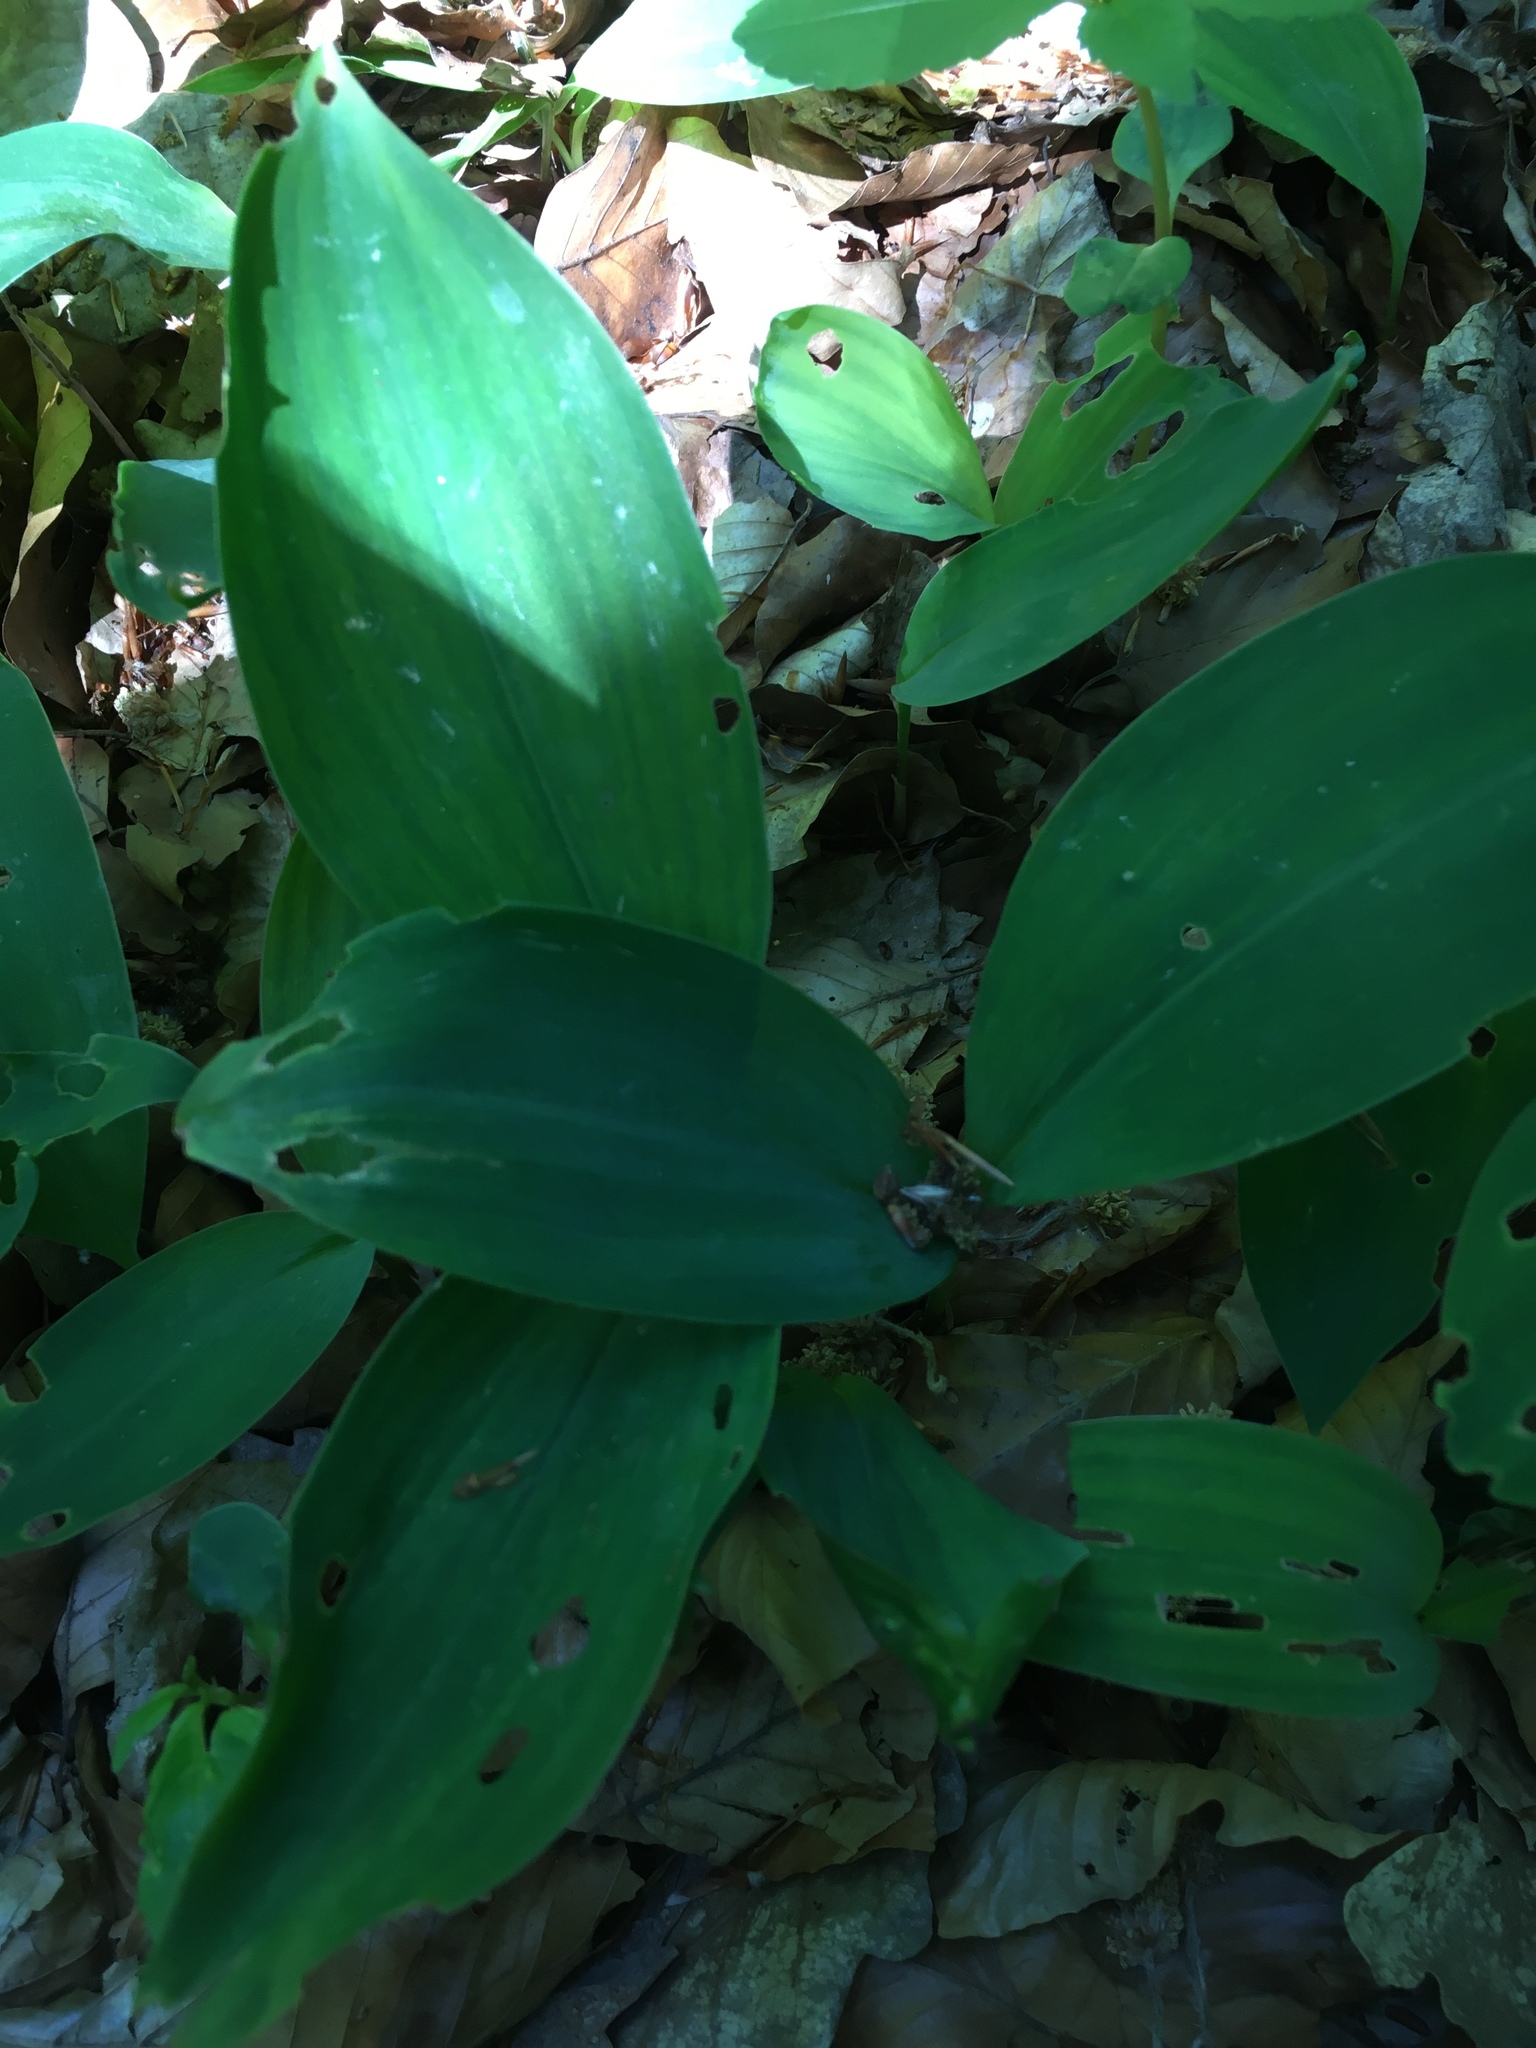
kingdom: Plantae
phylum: Tracheophyta
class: Liliopsida
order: Asparagales
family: Asparagaceae
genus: Convallaria
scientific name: Convallaria majalis
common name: Lily-of-the-valley
